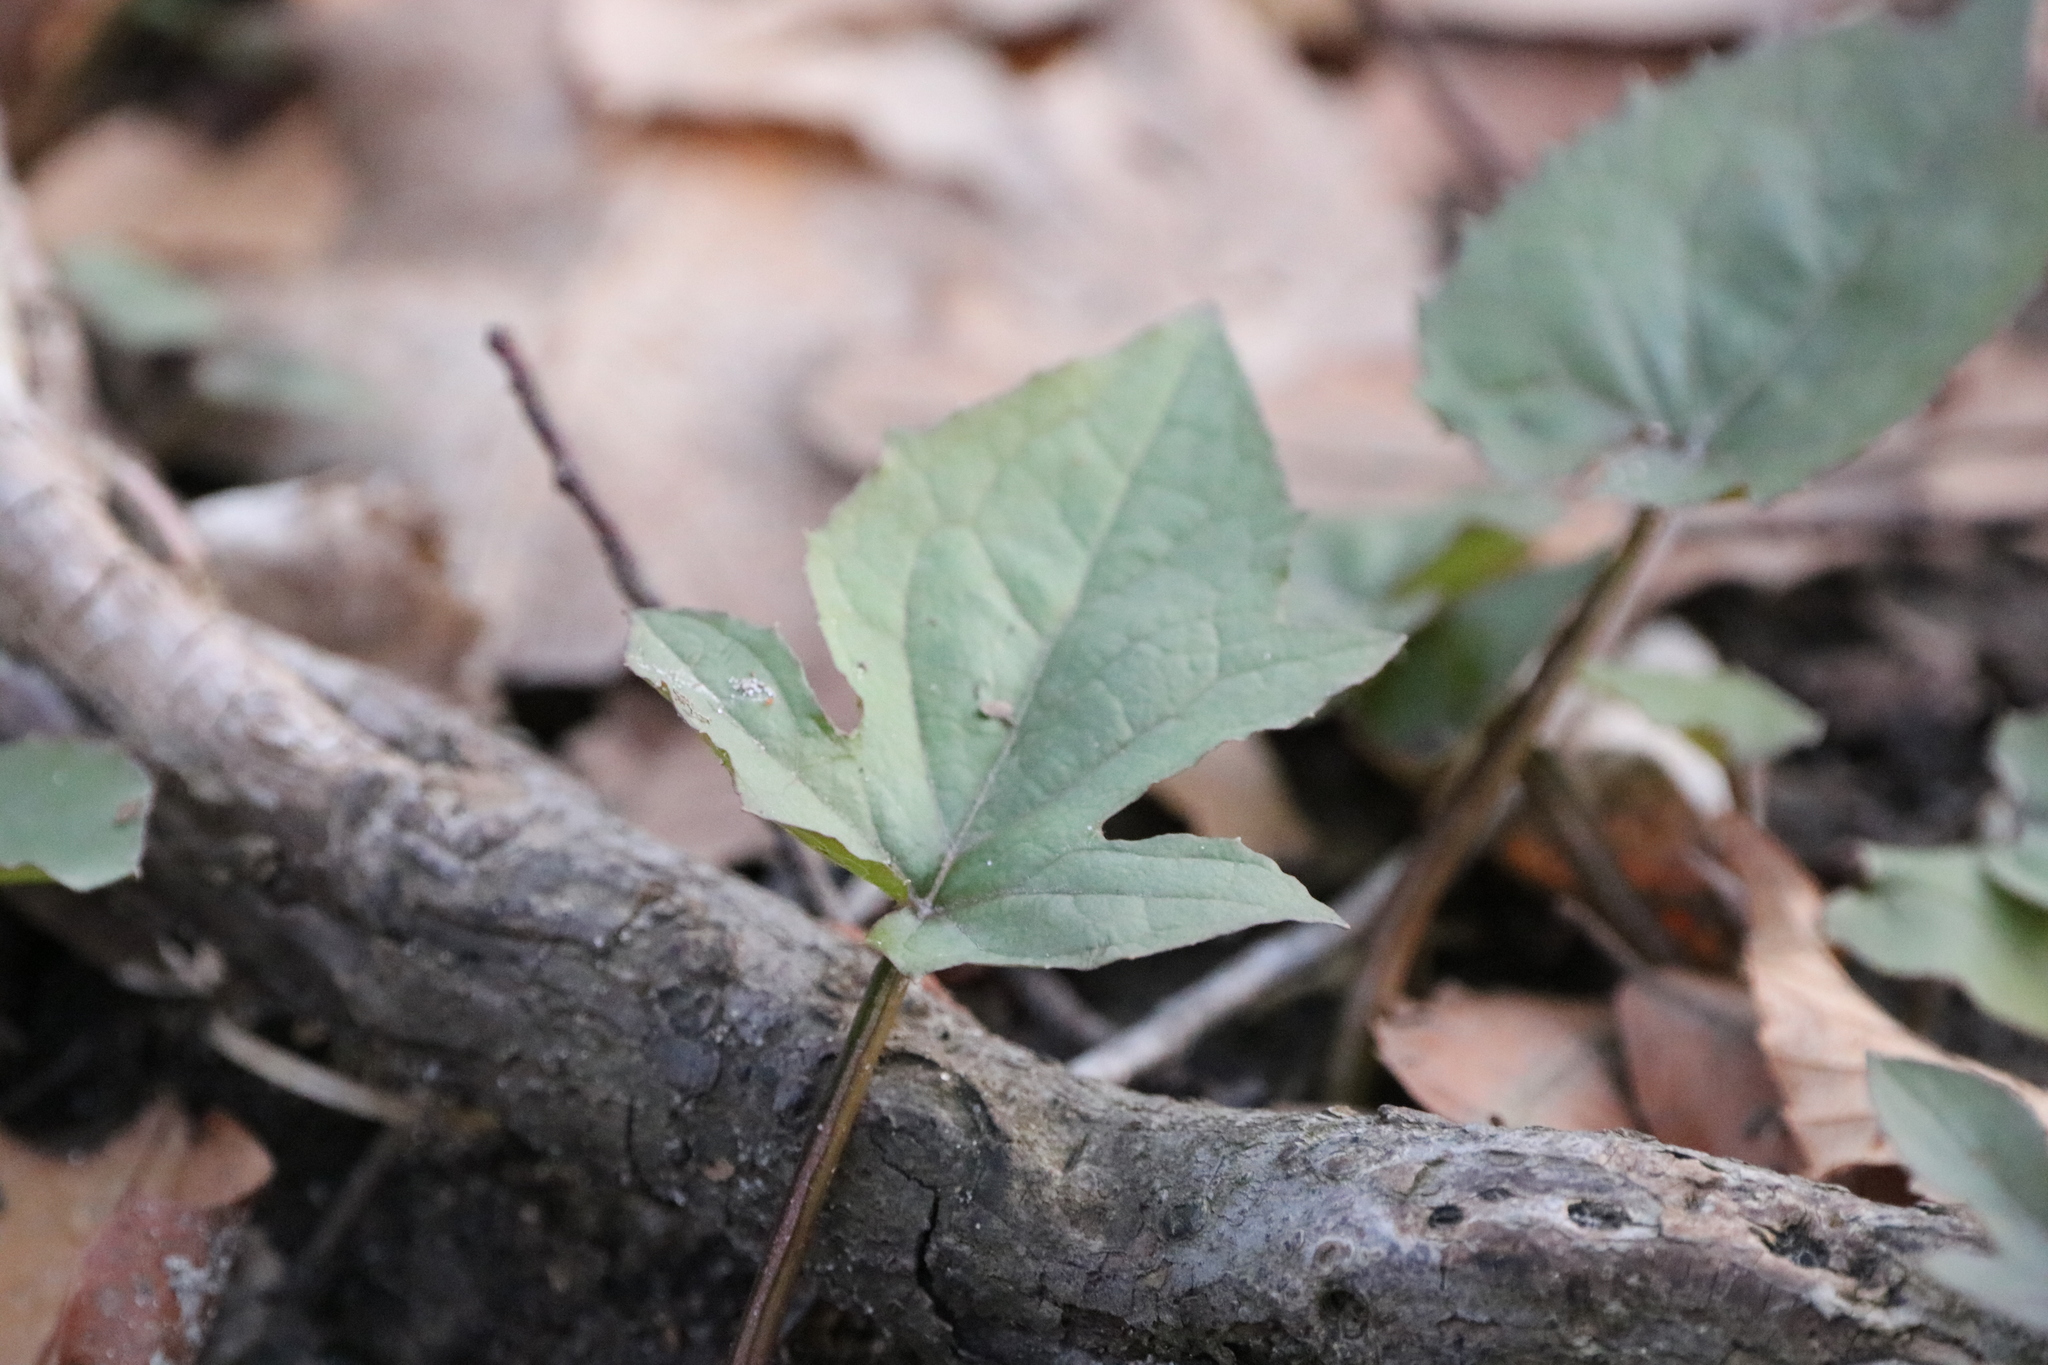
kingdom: Plantae
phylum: Tracheophyta
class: Magnoliopsida
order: Asterales
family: Asteraceae
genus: Nabalus
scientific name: Nabalus altissima
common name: Tall rattlesnakeroot
